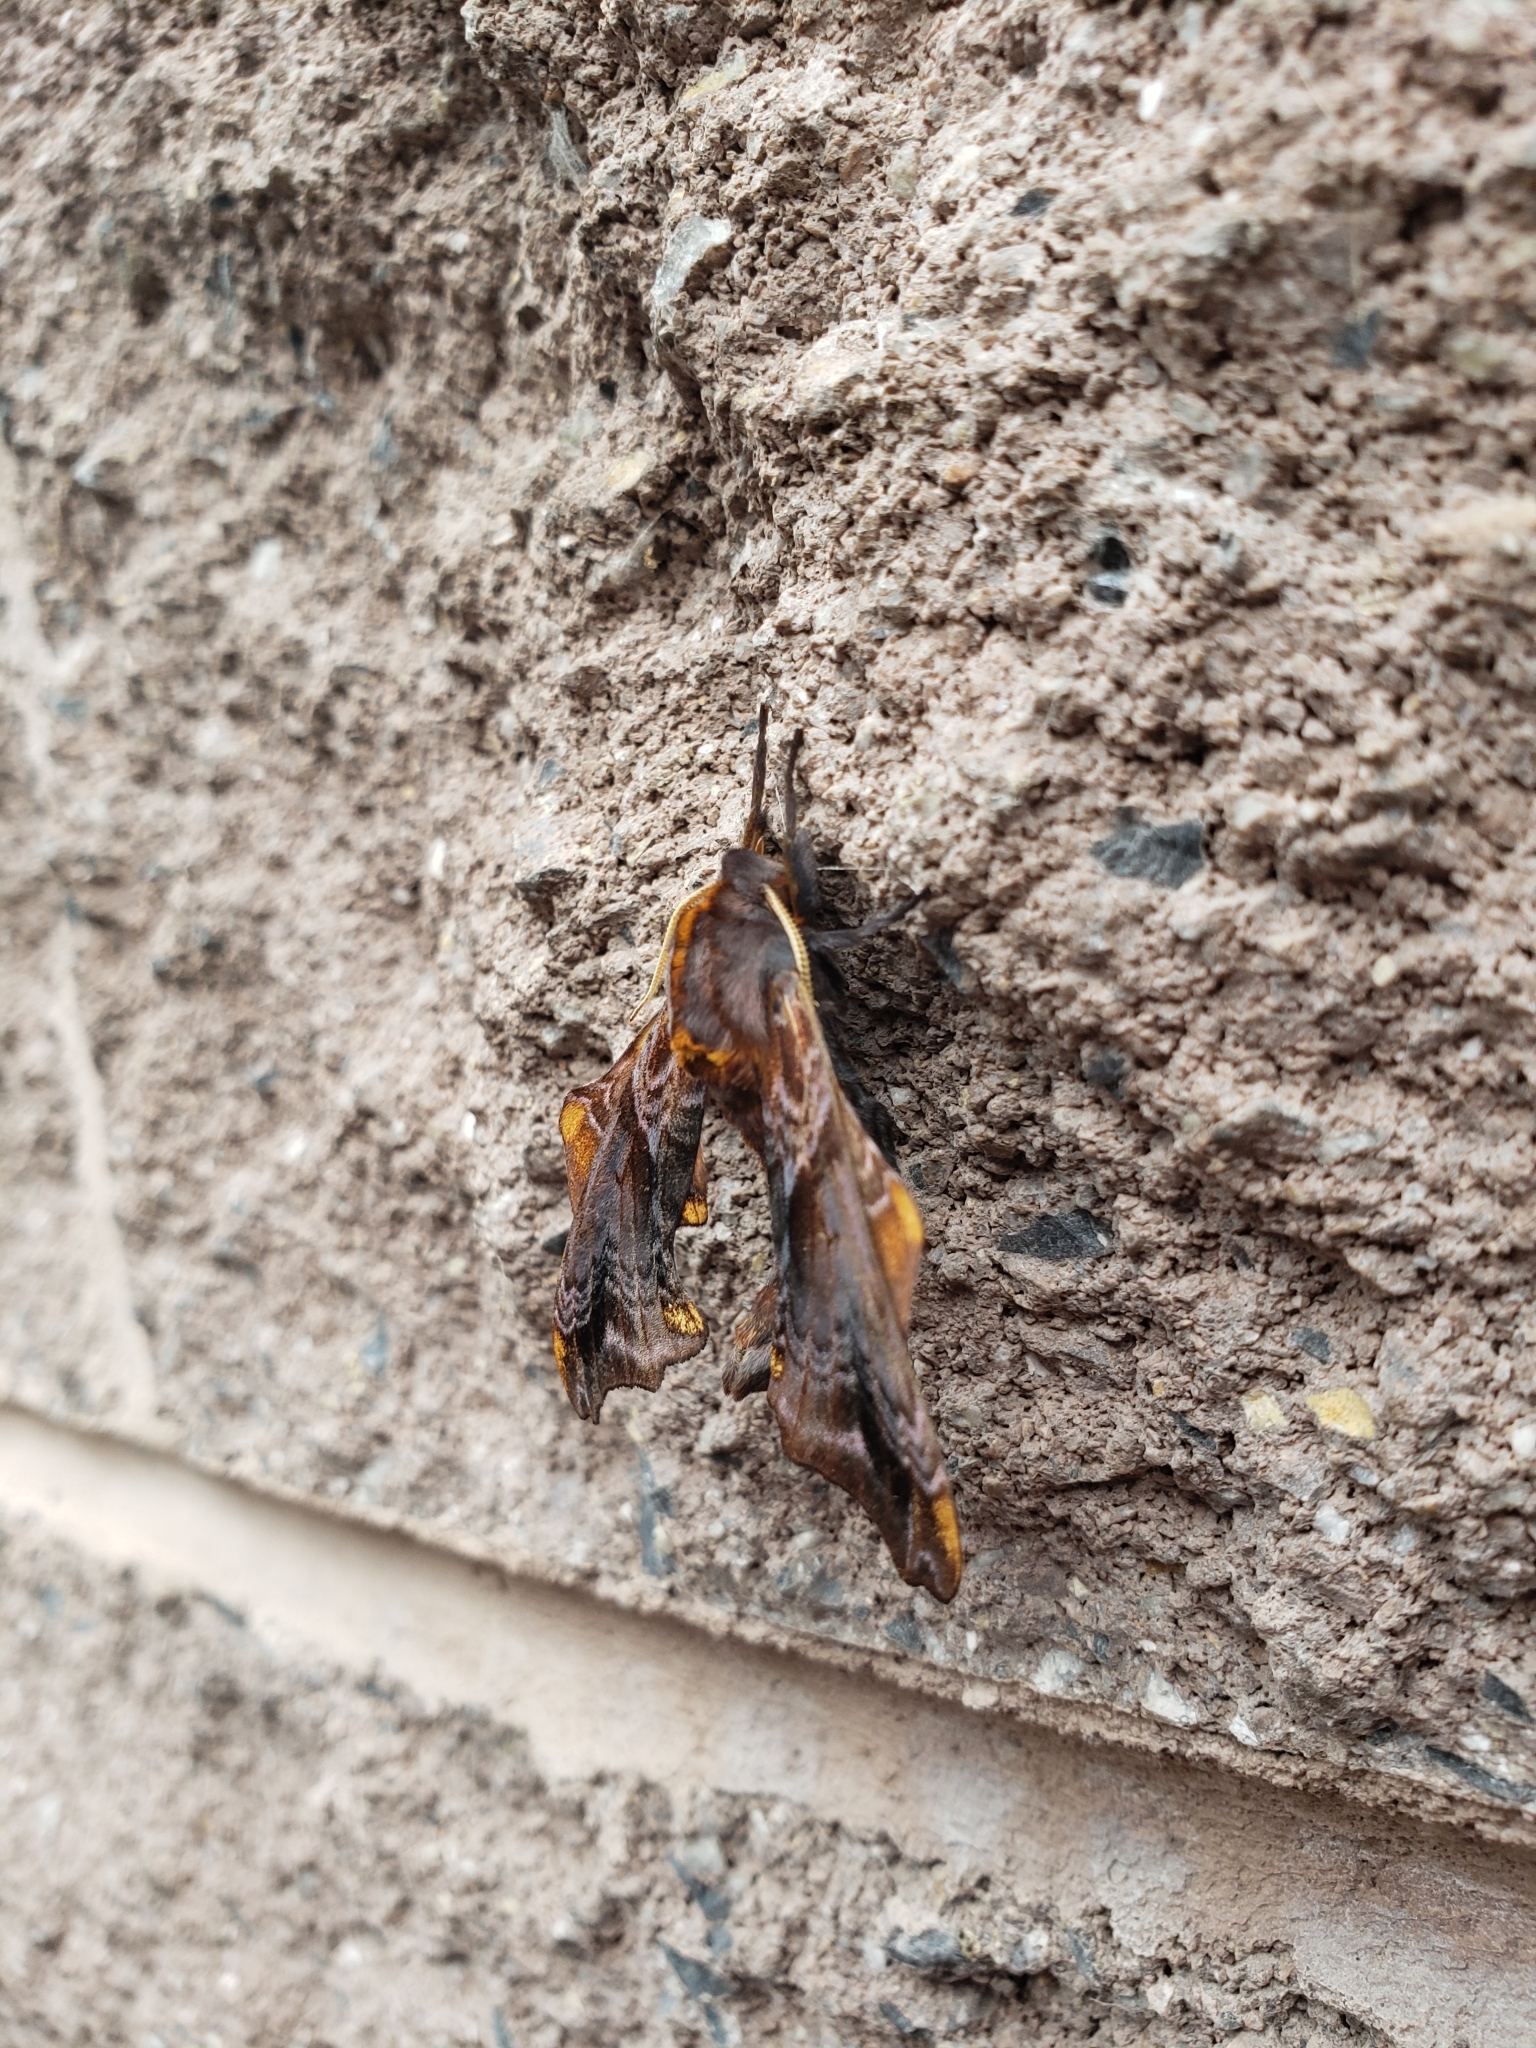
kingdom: Animalia
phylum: Arthropoda
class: Insecta
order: Lepidoptera
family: Sphingidae
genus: Paonias
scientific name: Paonias myops
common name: Small-eyed sphinx
